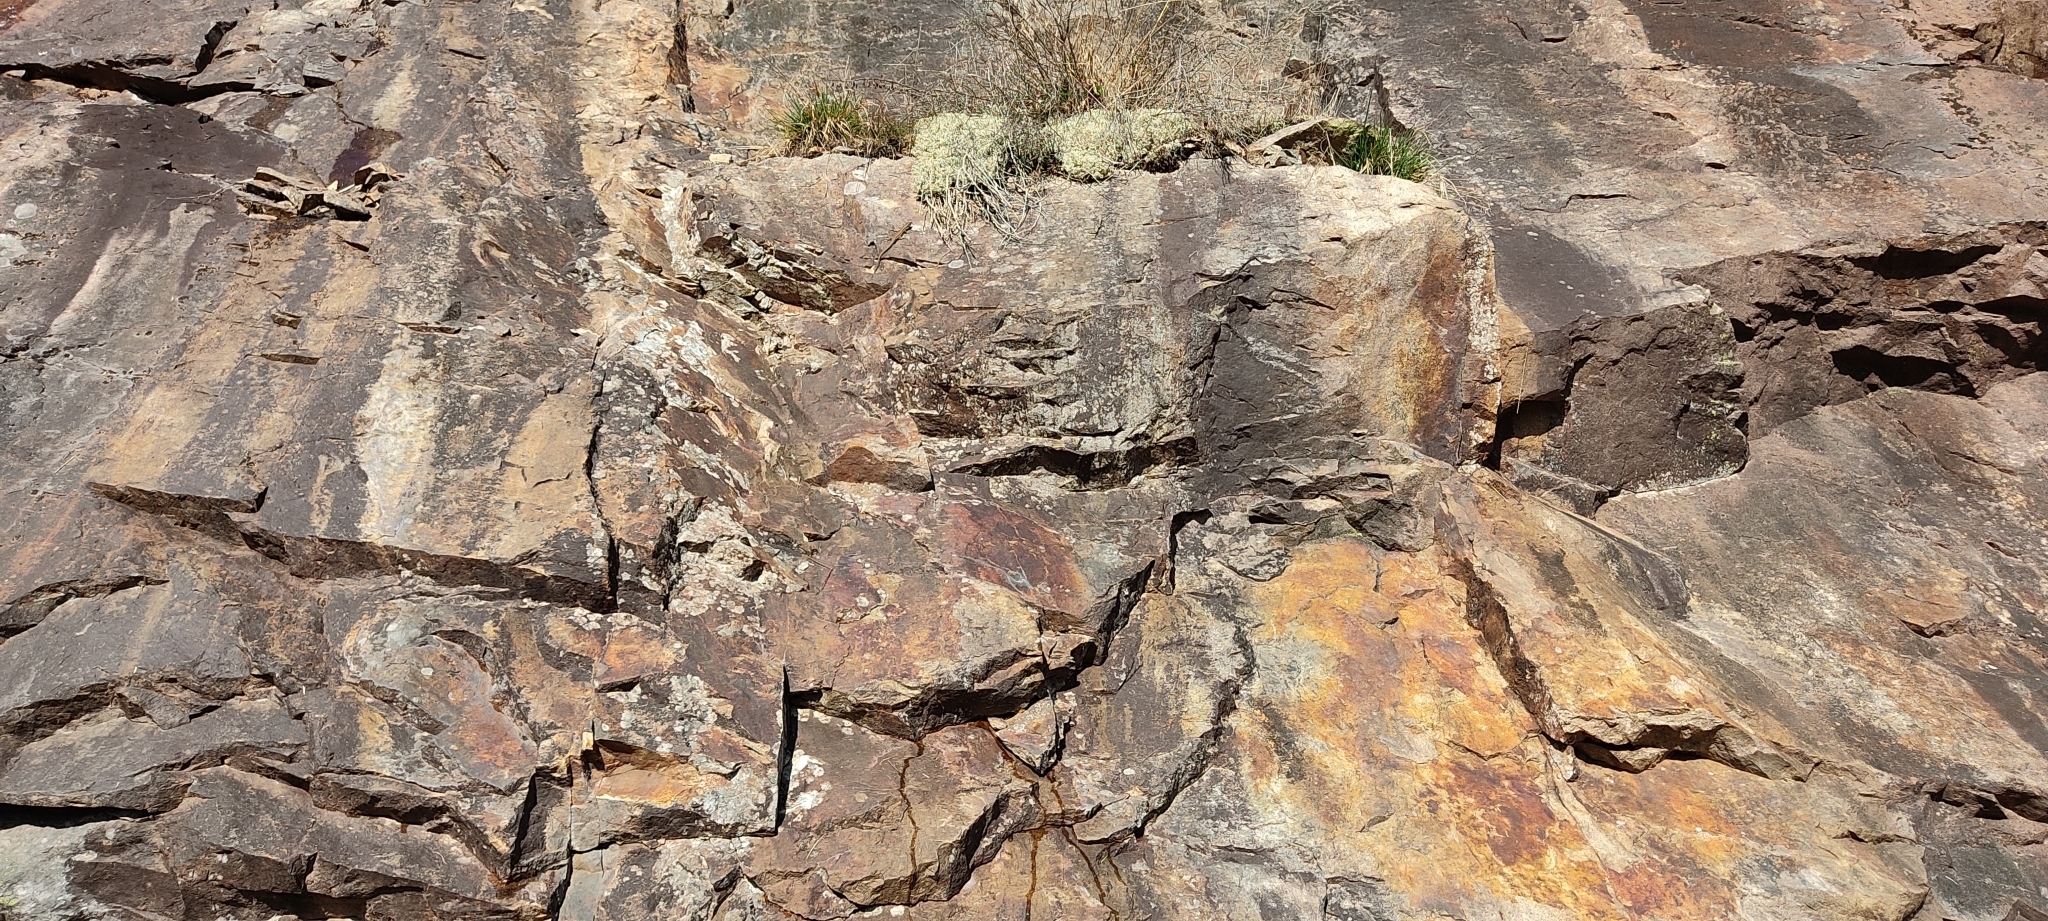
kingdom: Animalia
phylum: Chordata
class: Squamata
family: Lacertidae
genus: Podarcis
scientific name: Podarcis muralis
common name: Common wall lizard
